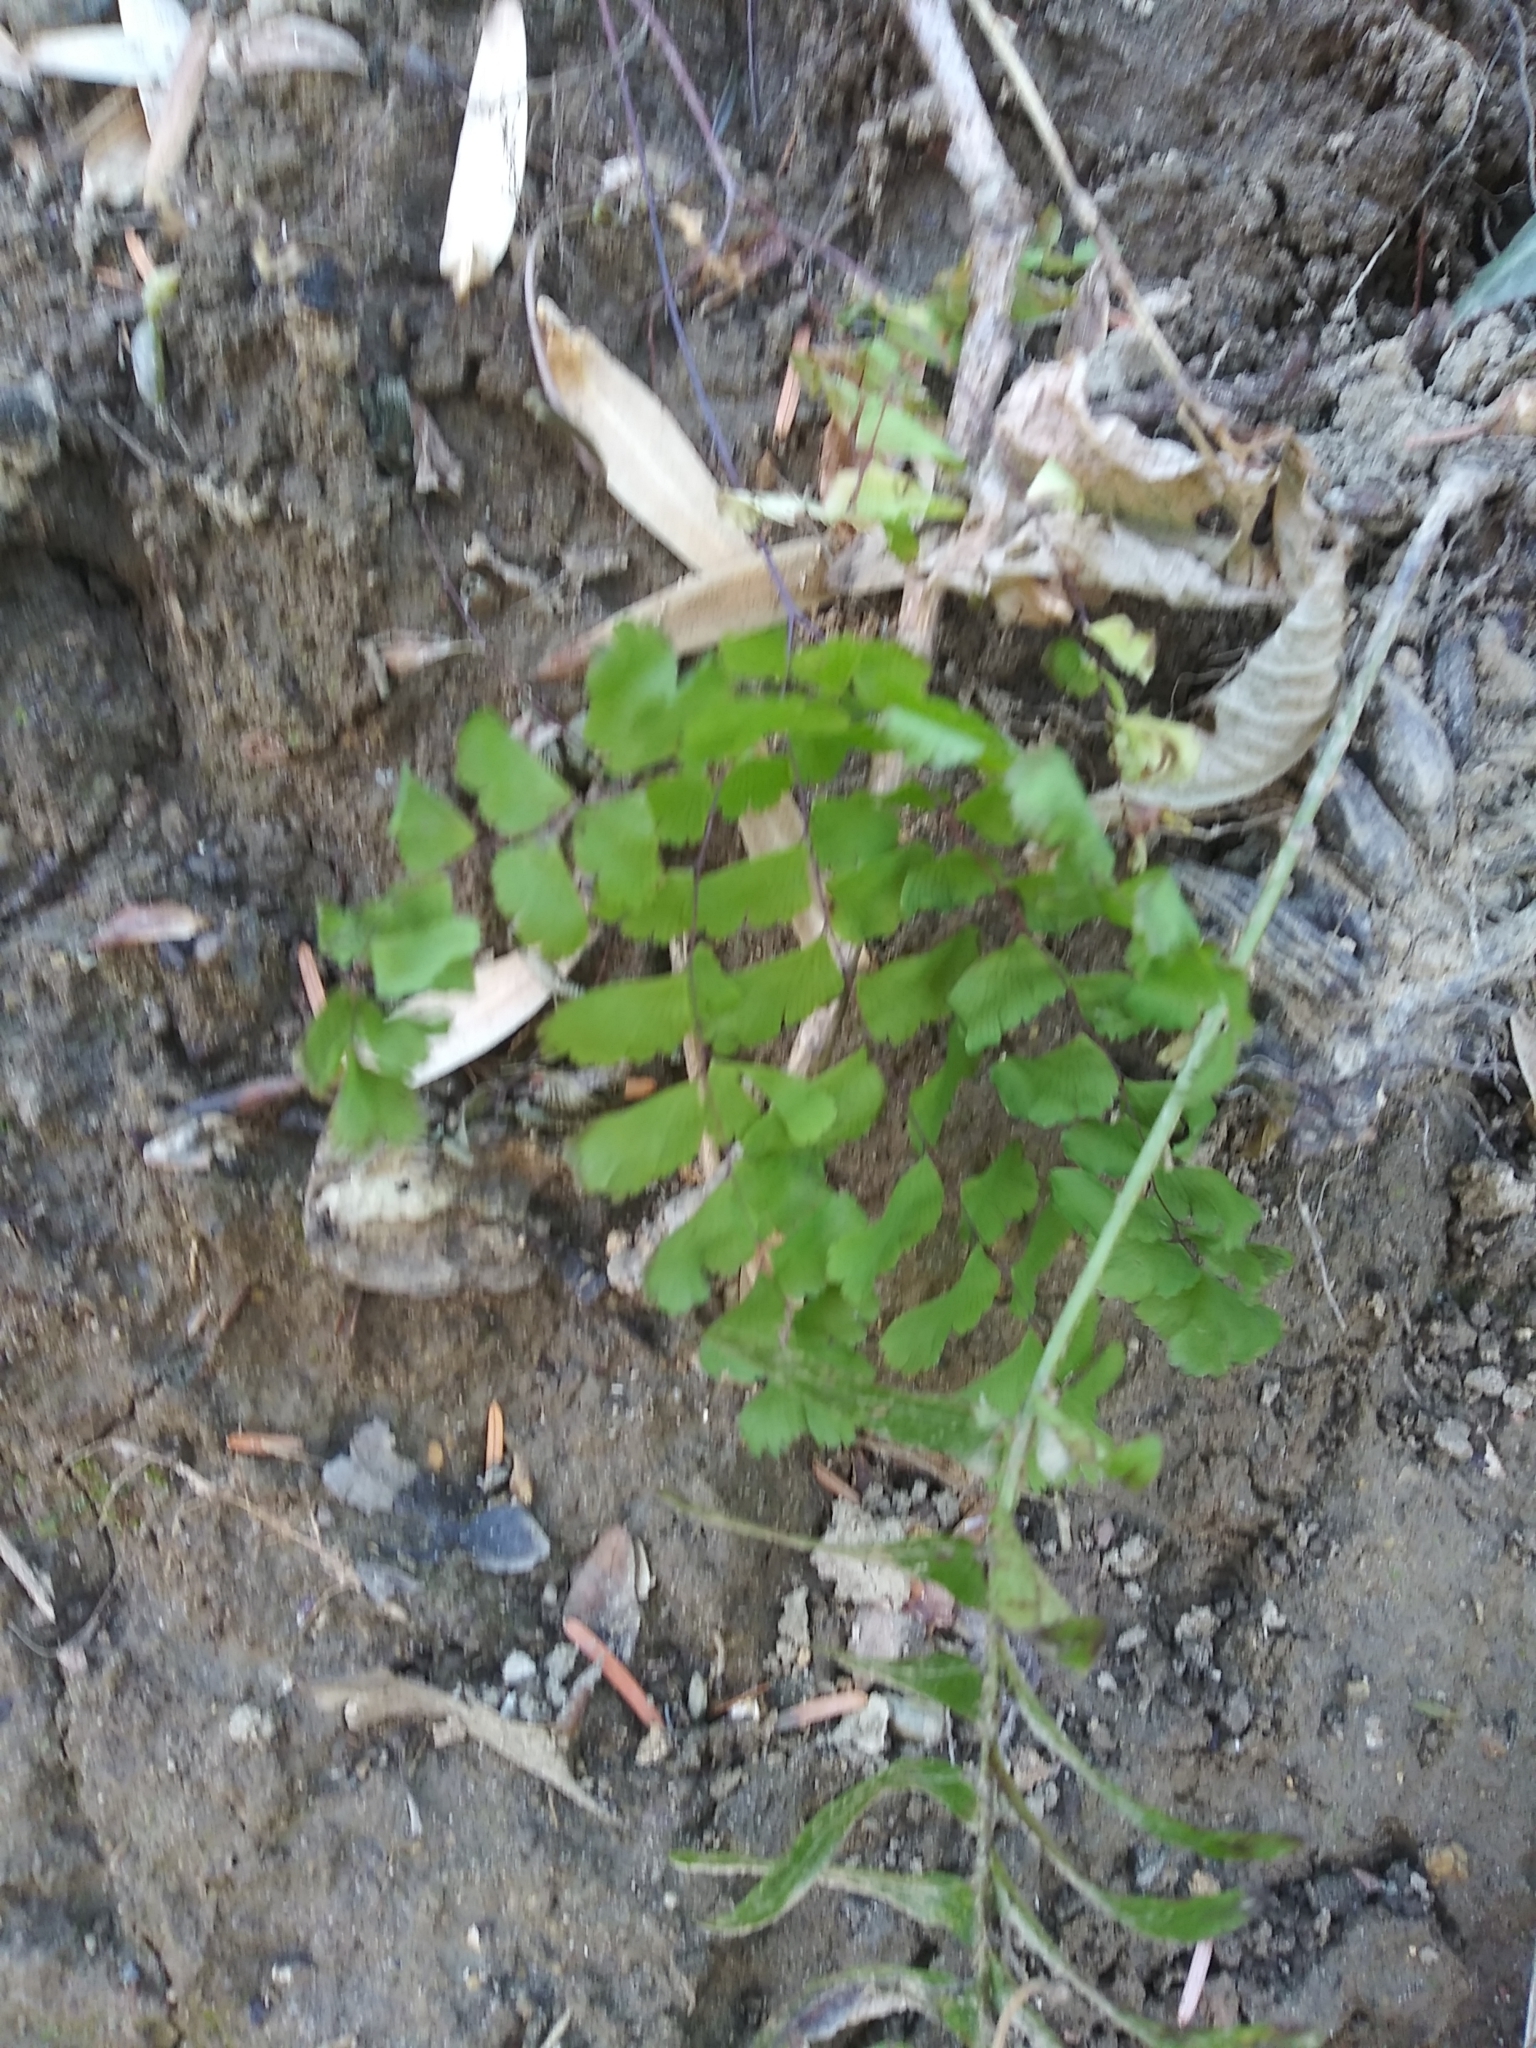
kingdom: Plantae
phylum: Tracheophyta
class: Polypodiopsida
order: Polypodiales
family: Pteridaceae
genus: Adiantum
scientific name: Adiantum pedatum
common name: Five-finger fern
